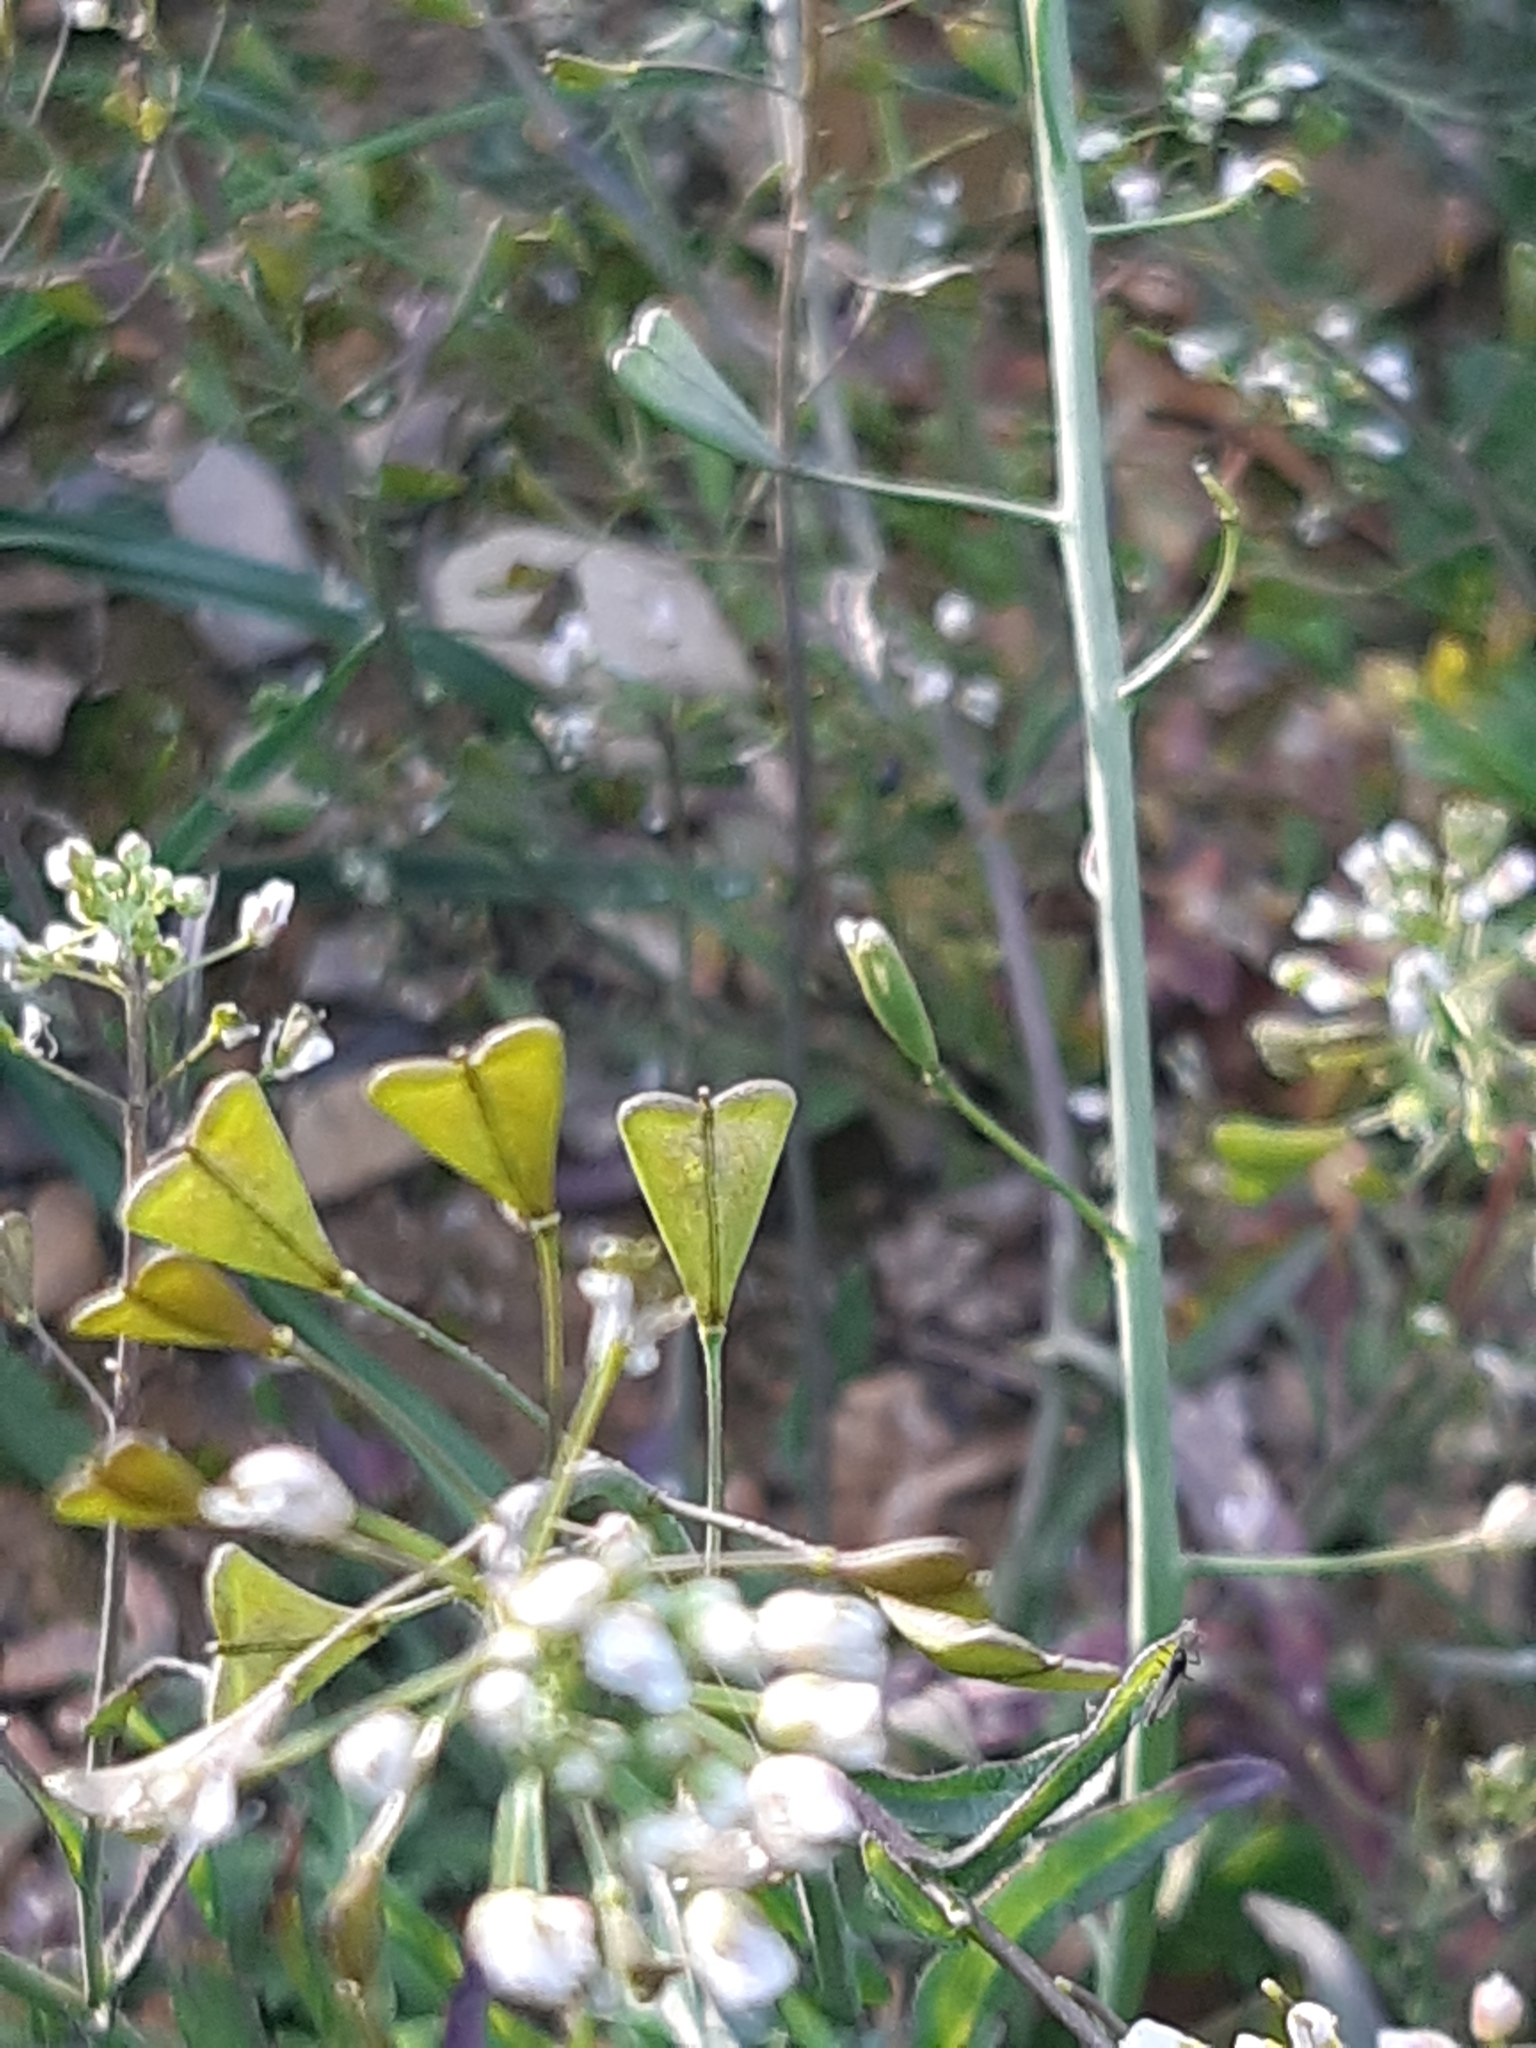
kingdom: Plantae
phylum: Tracheophyta
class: Magnoliopsida
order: Brassicales
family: Brassicaceae
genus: Capsella
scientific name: Capsella bursa-pastoris
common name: Shepherd's purse
